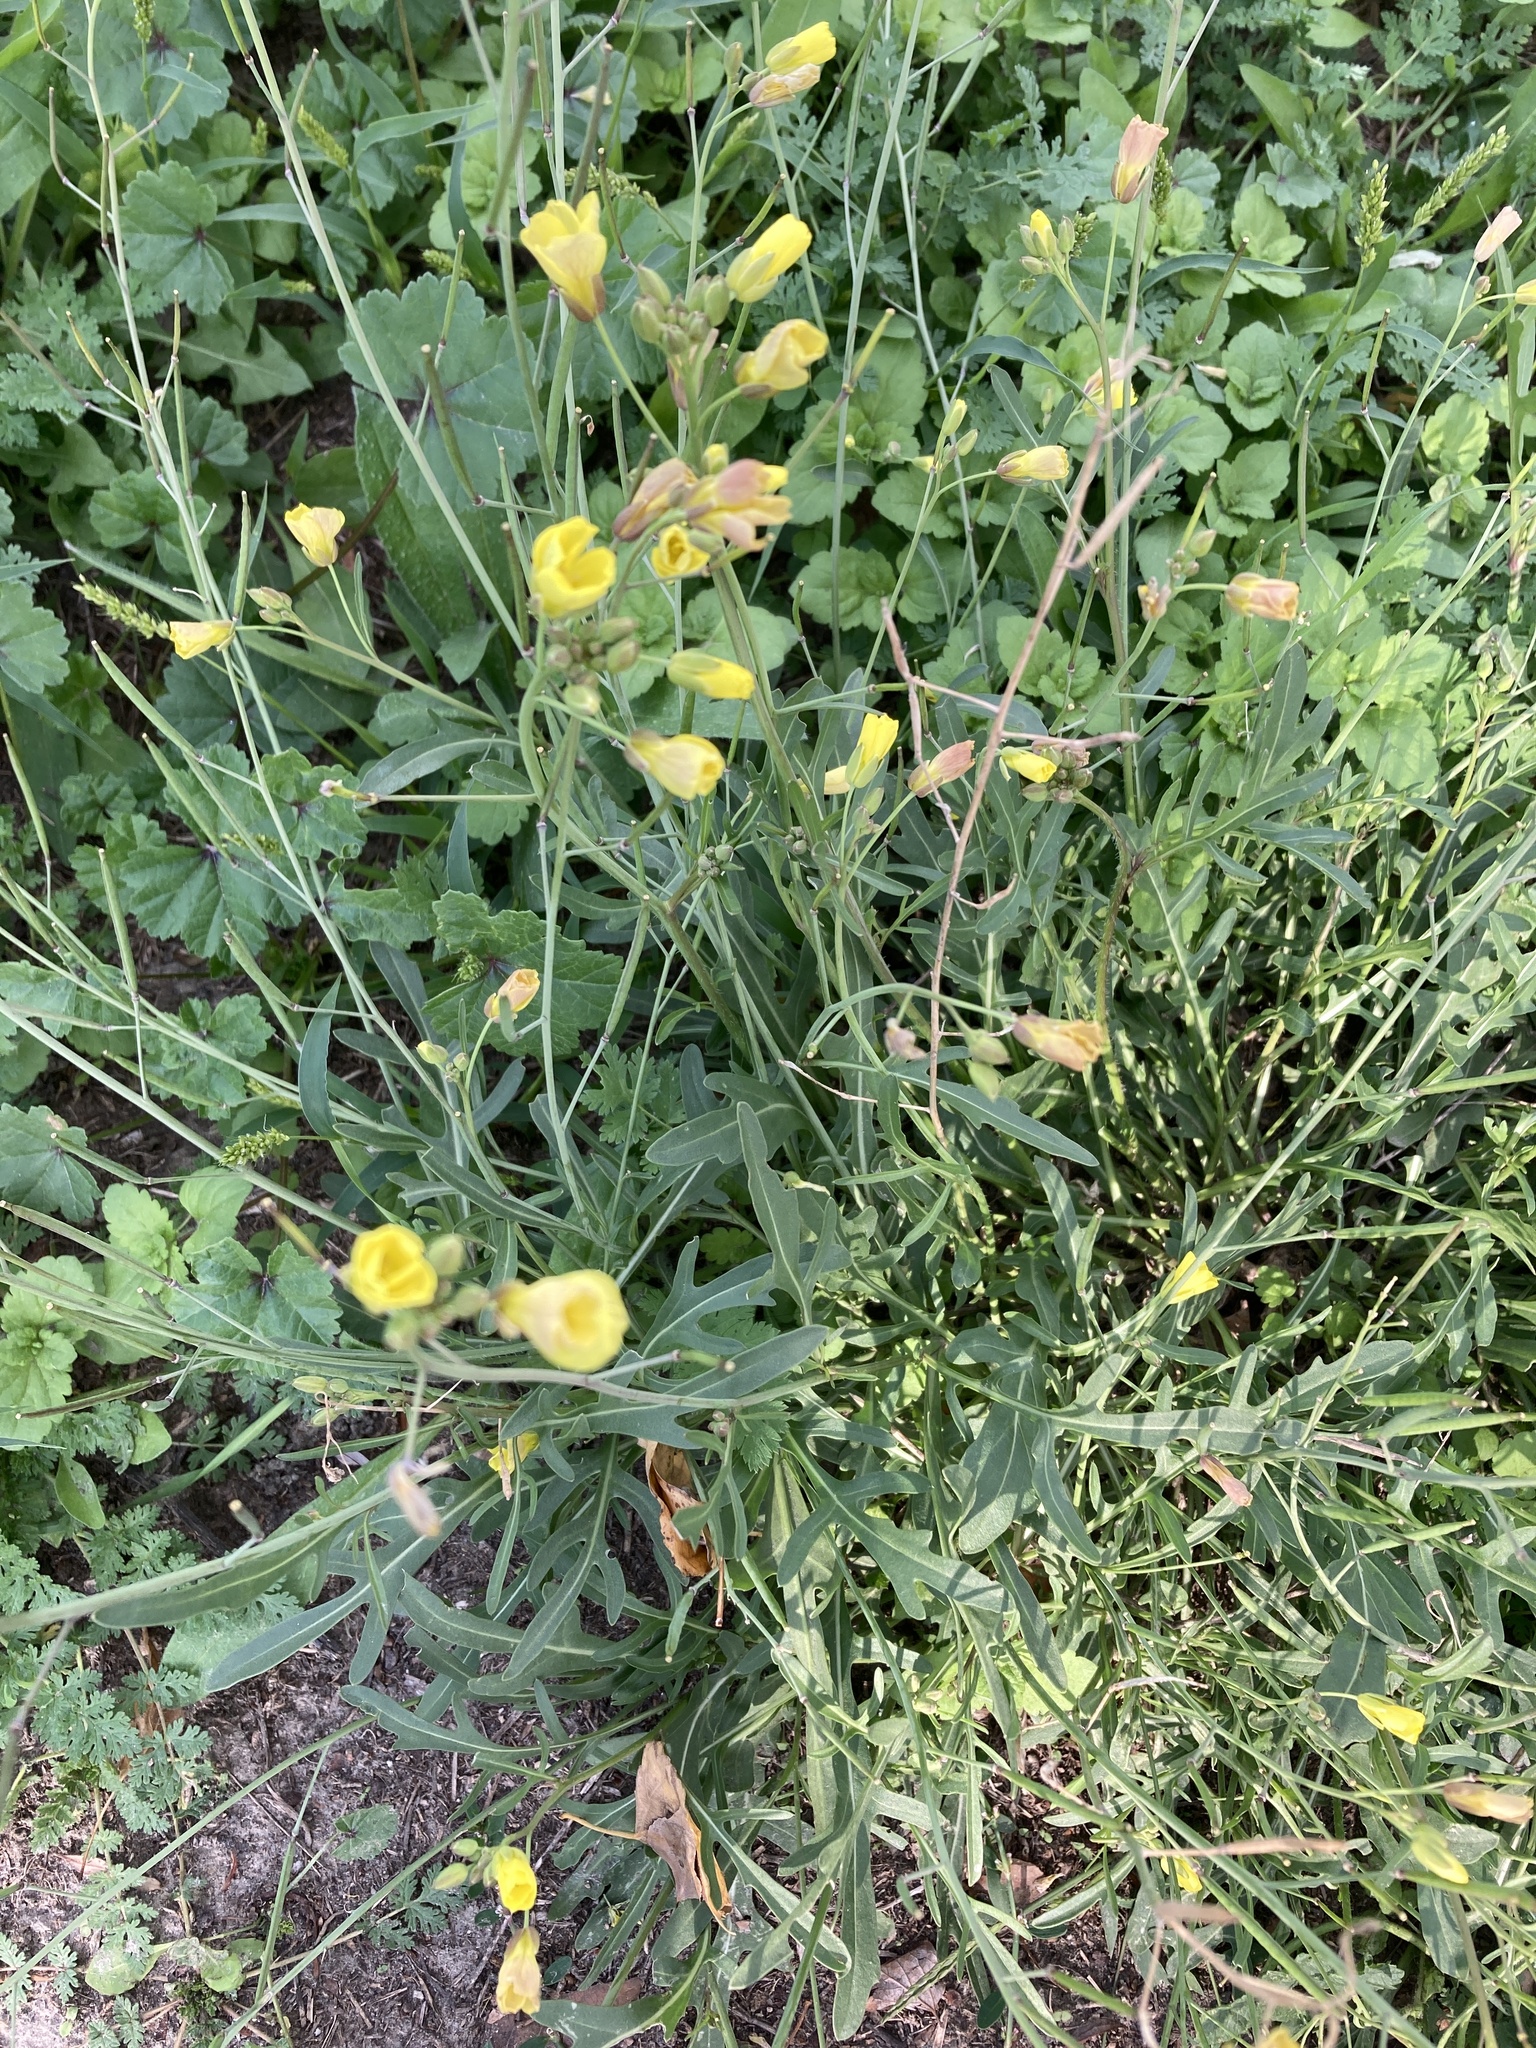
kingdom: Plantae
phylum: Tracheophyta
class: Magnoliopsida
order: Brassicales
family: Brassicaceae
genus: Diplotaxis
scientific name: Diplotaxis tenuifolia
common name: Perennial wall-rocket
